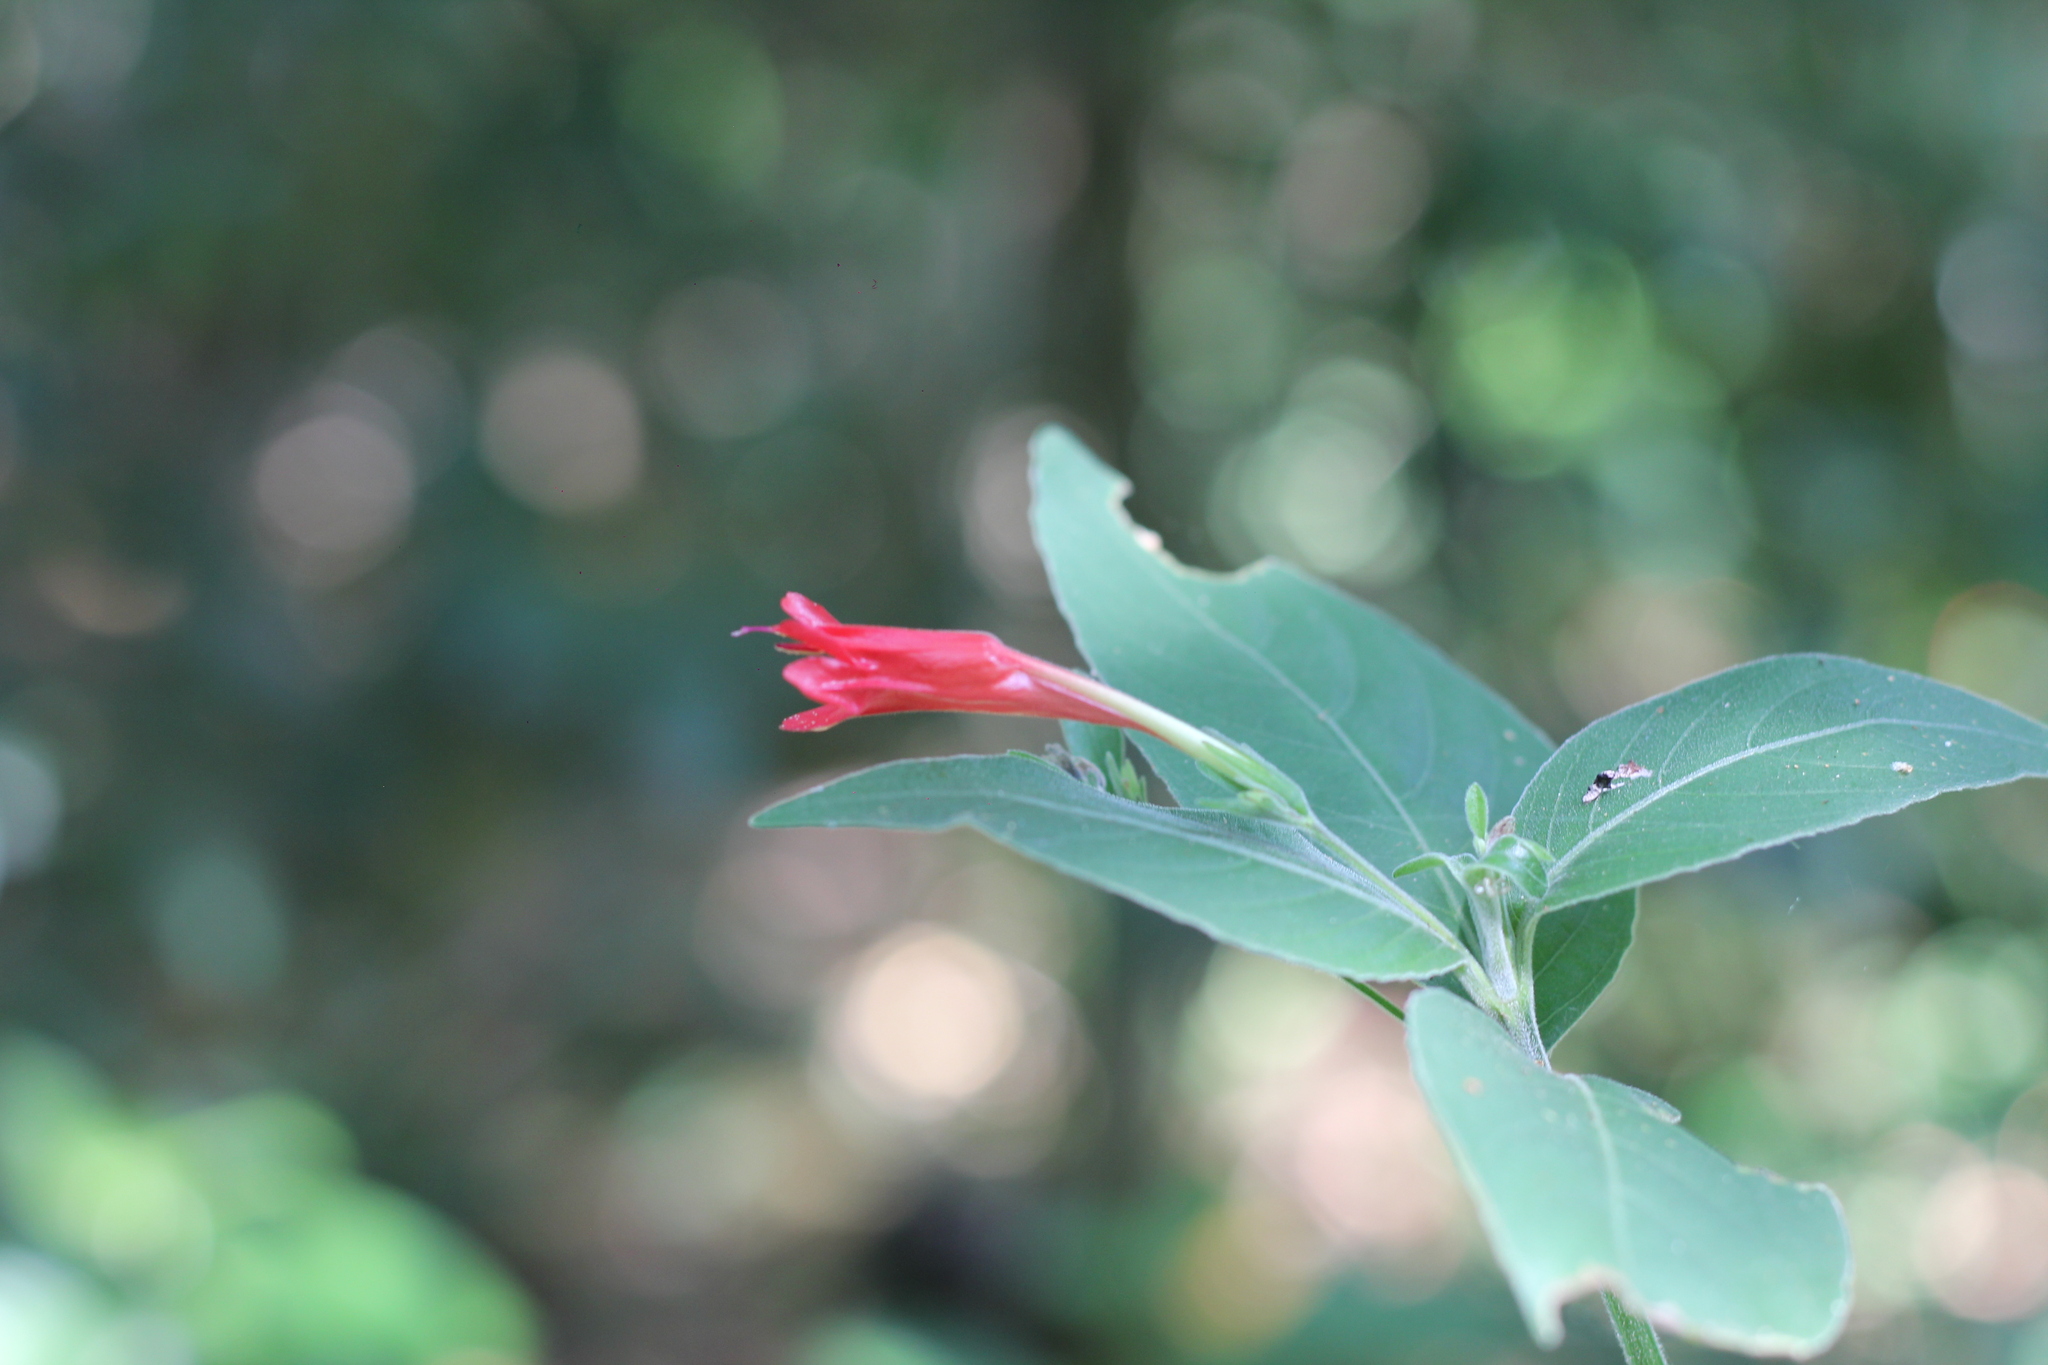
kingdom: Plantae
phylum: Tracheophyta
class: Magnoliopsida
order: Lamiales
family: Acanthaceae
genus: Ruellia
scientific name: Ruellia angustiflora
